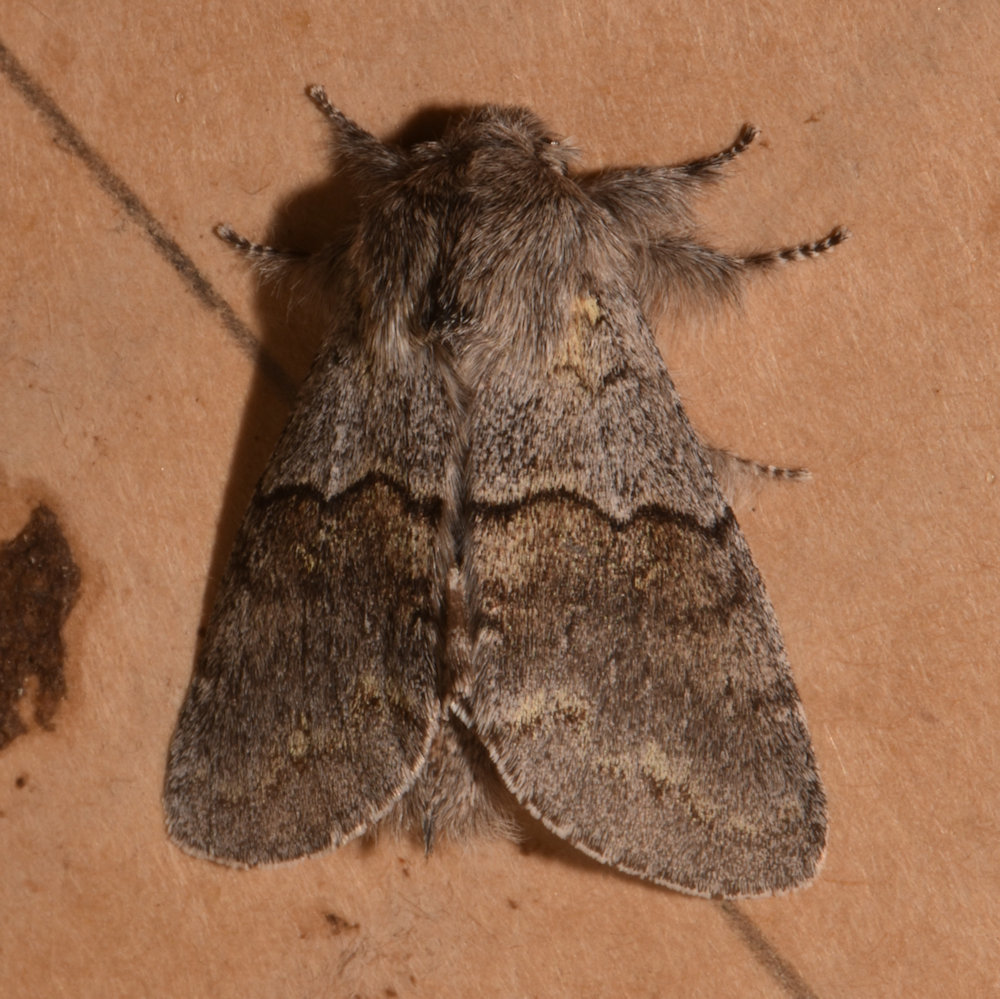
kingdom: Animalia
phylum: Arthropoda
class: Insecta
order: Lepidoptera
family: Notodontidae
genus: Gluphisia
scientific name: Gluphisia lintneri
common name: Lintner's gluphisia moth
